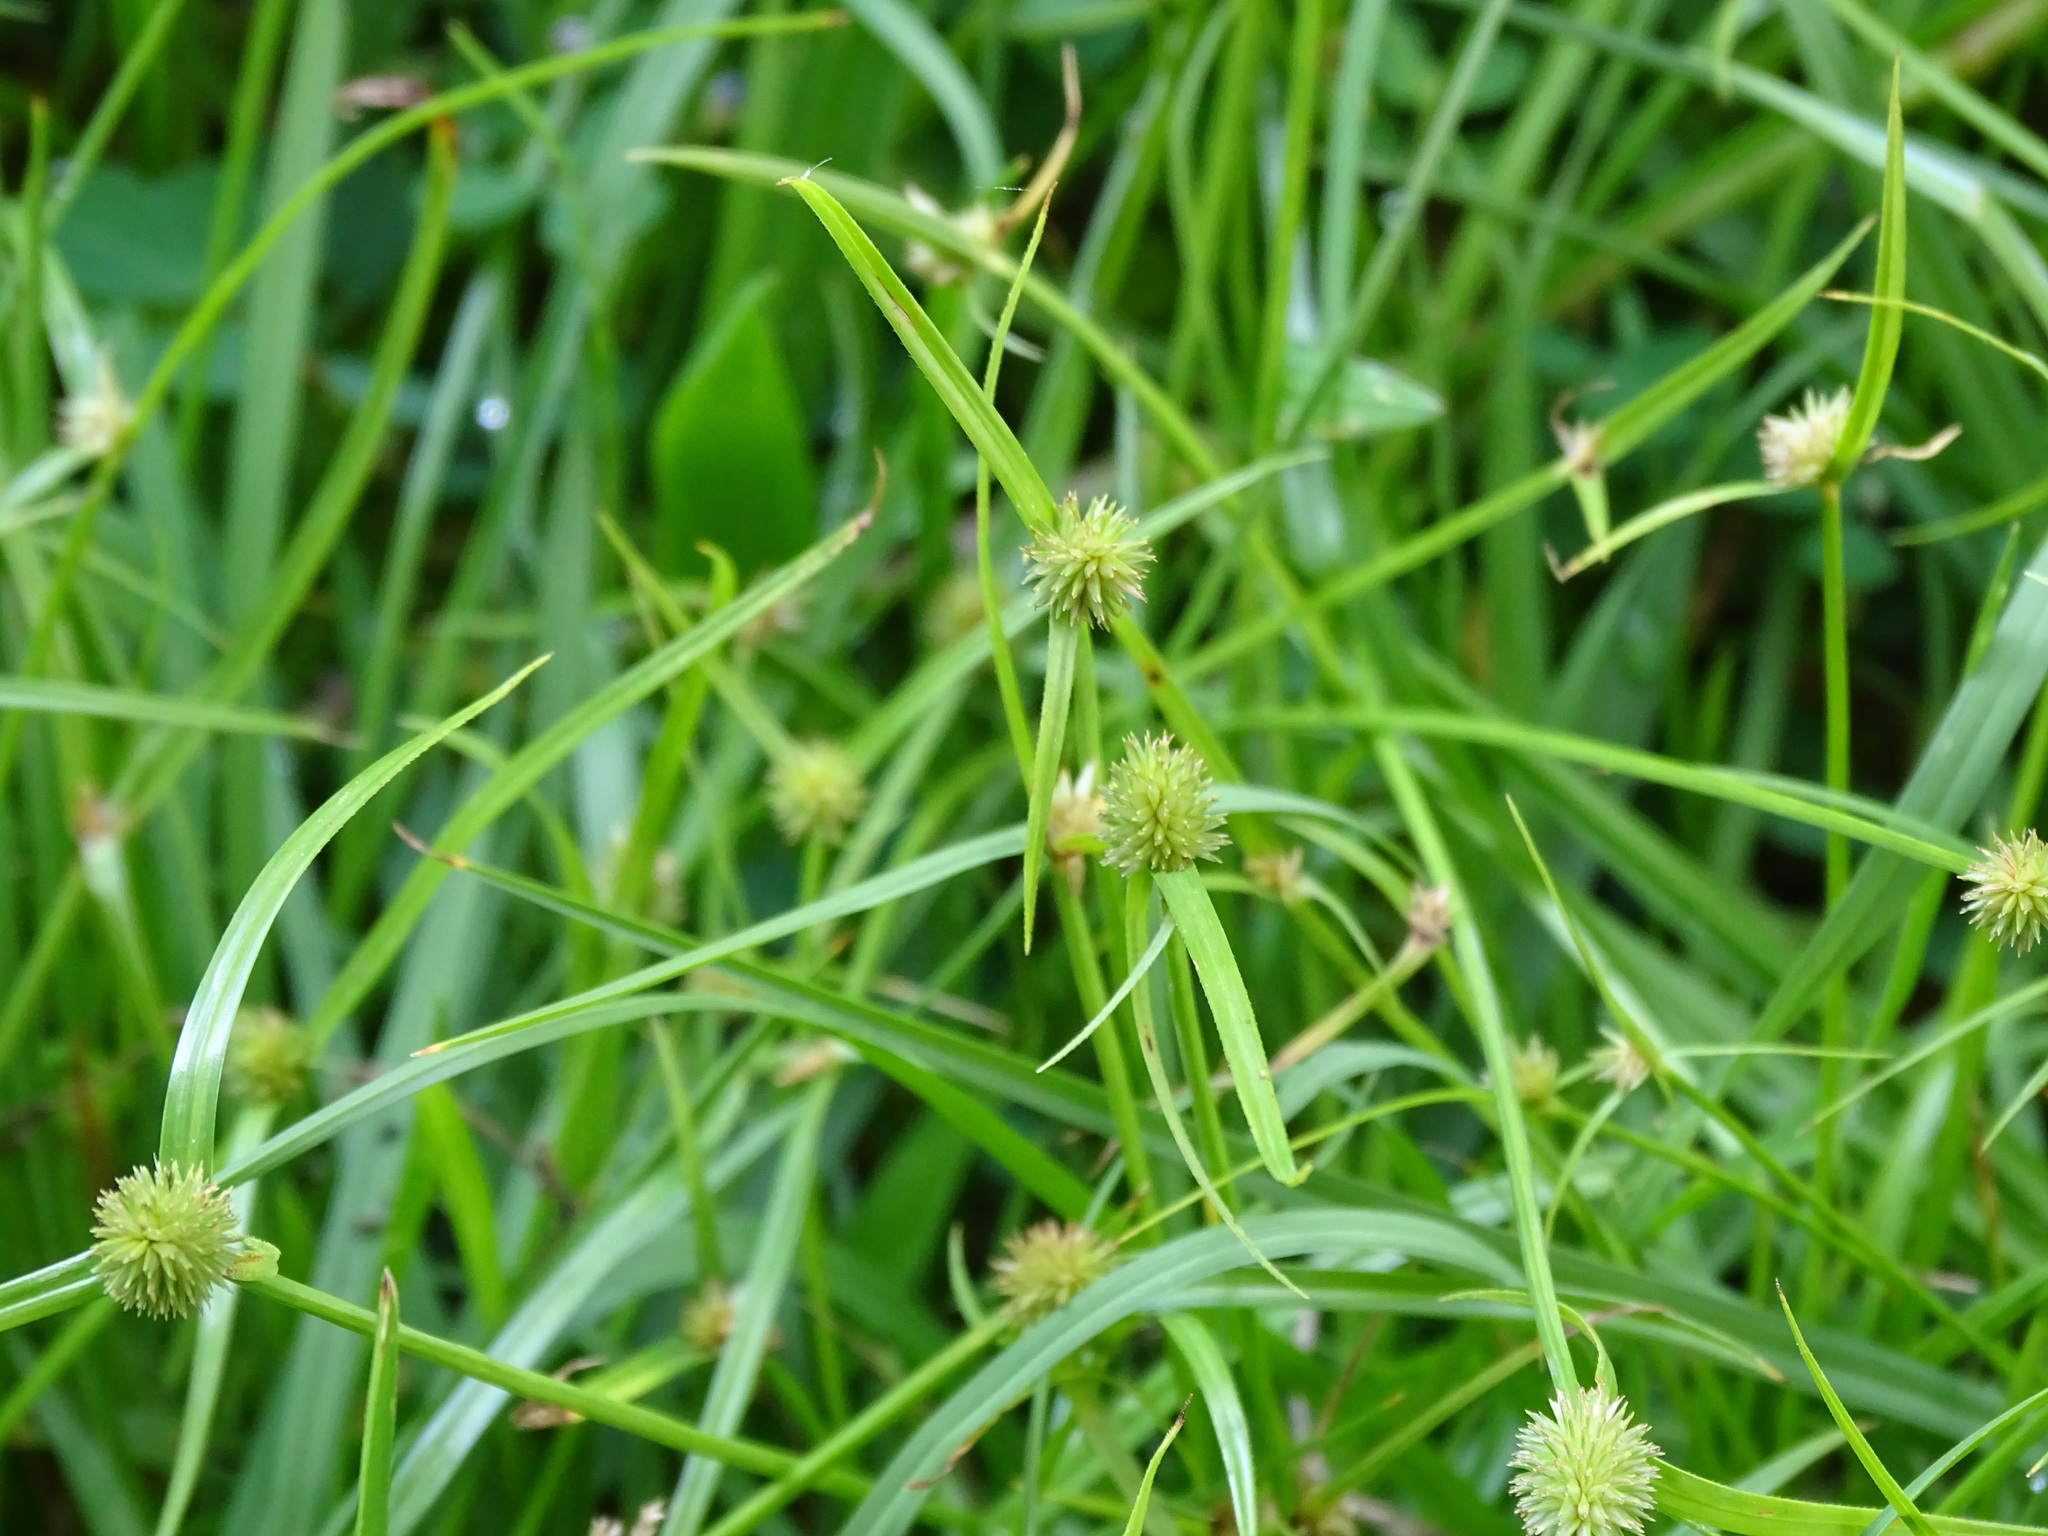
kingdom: Plantae
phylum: Tracheophyta
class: Liliopsida
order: Poales
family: Cyperaceae
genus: Cyperus
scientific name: Cyperus brevifolius
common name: Globe kyllinga
